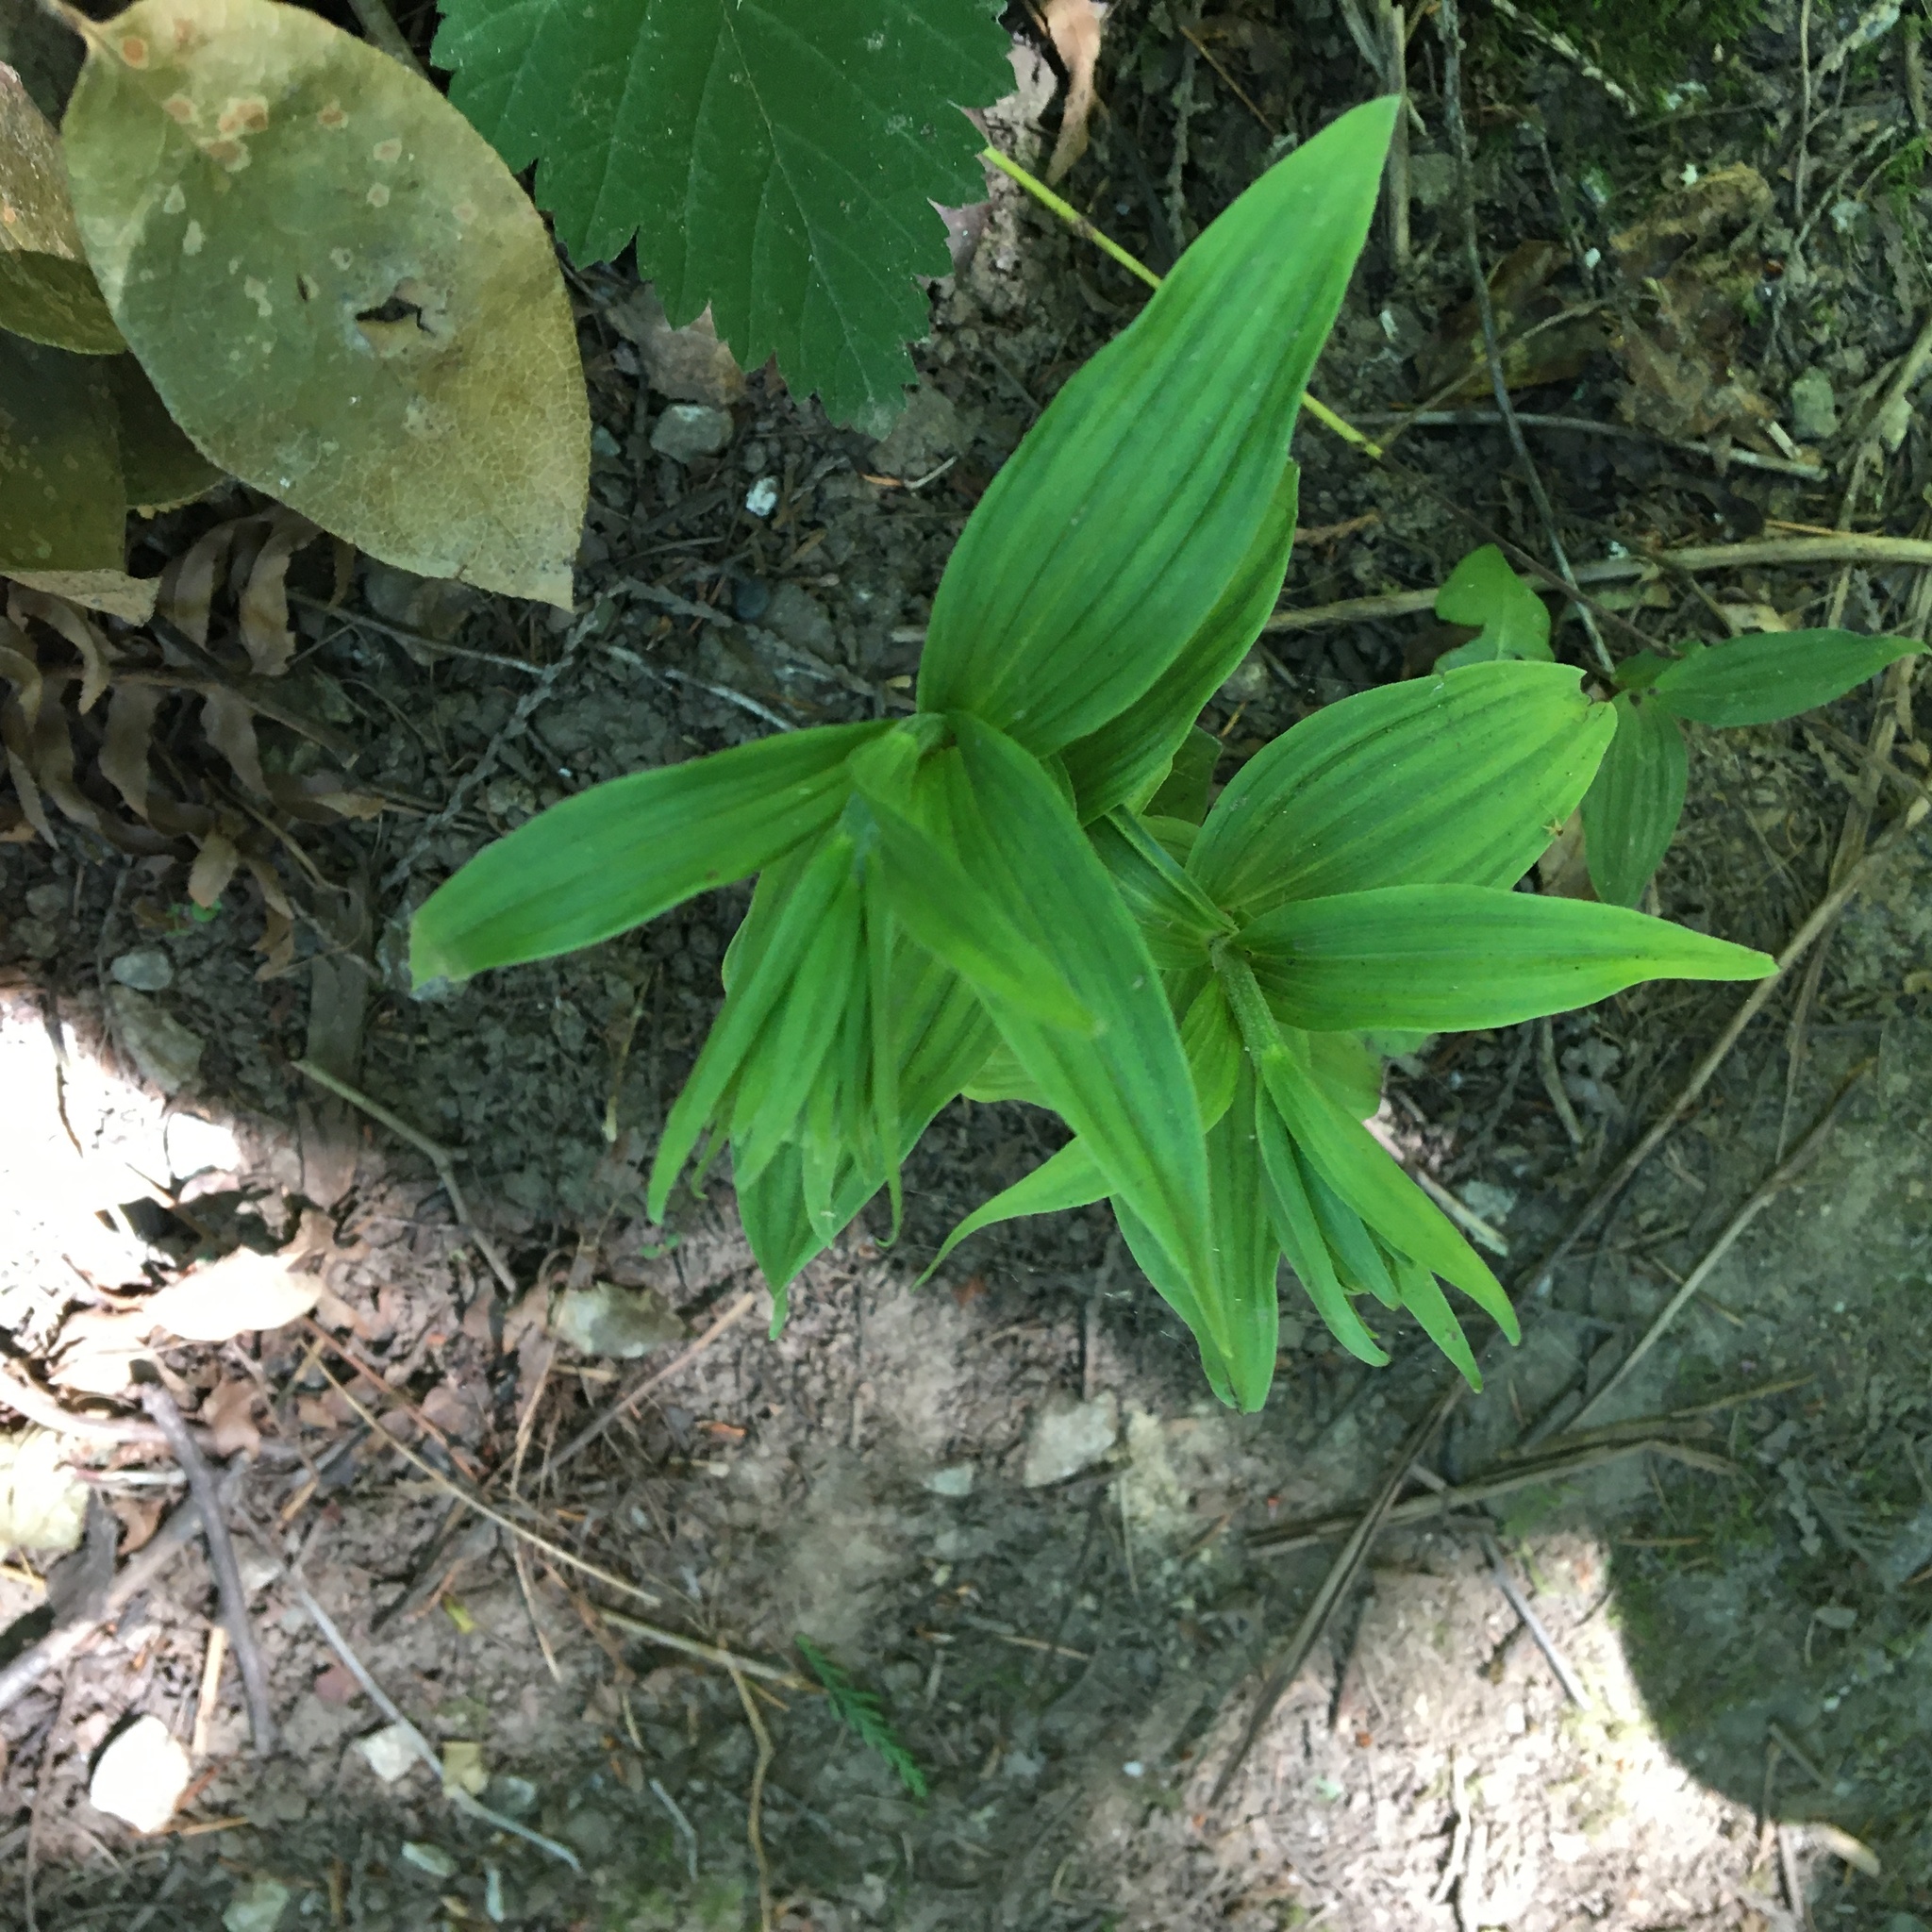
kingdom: Plantae
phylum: Tracheophyta
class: Liliopsida
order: Asparagales
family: Orchidaceae
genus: Epipactis
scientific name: Epipactis helleborine
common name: Broad-leaved helleborine
